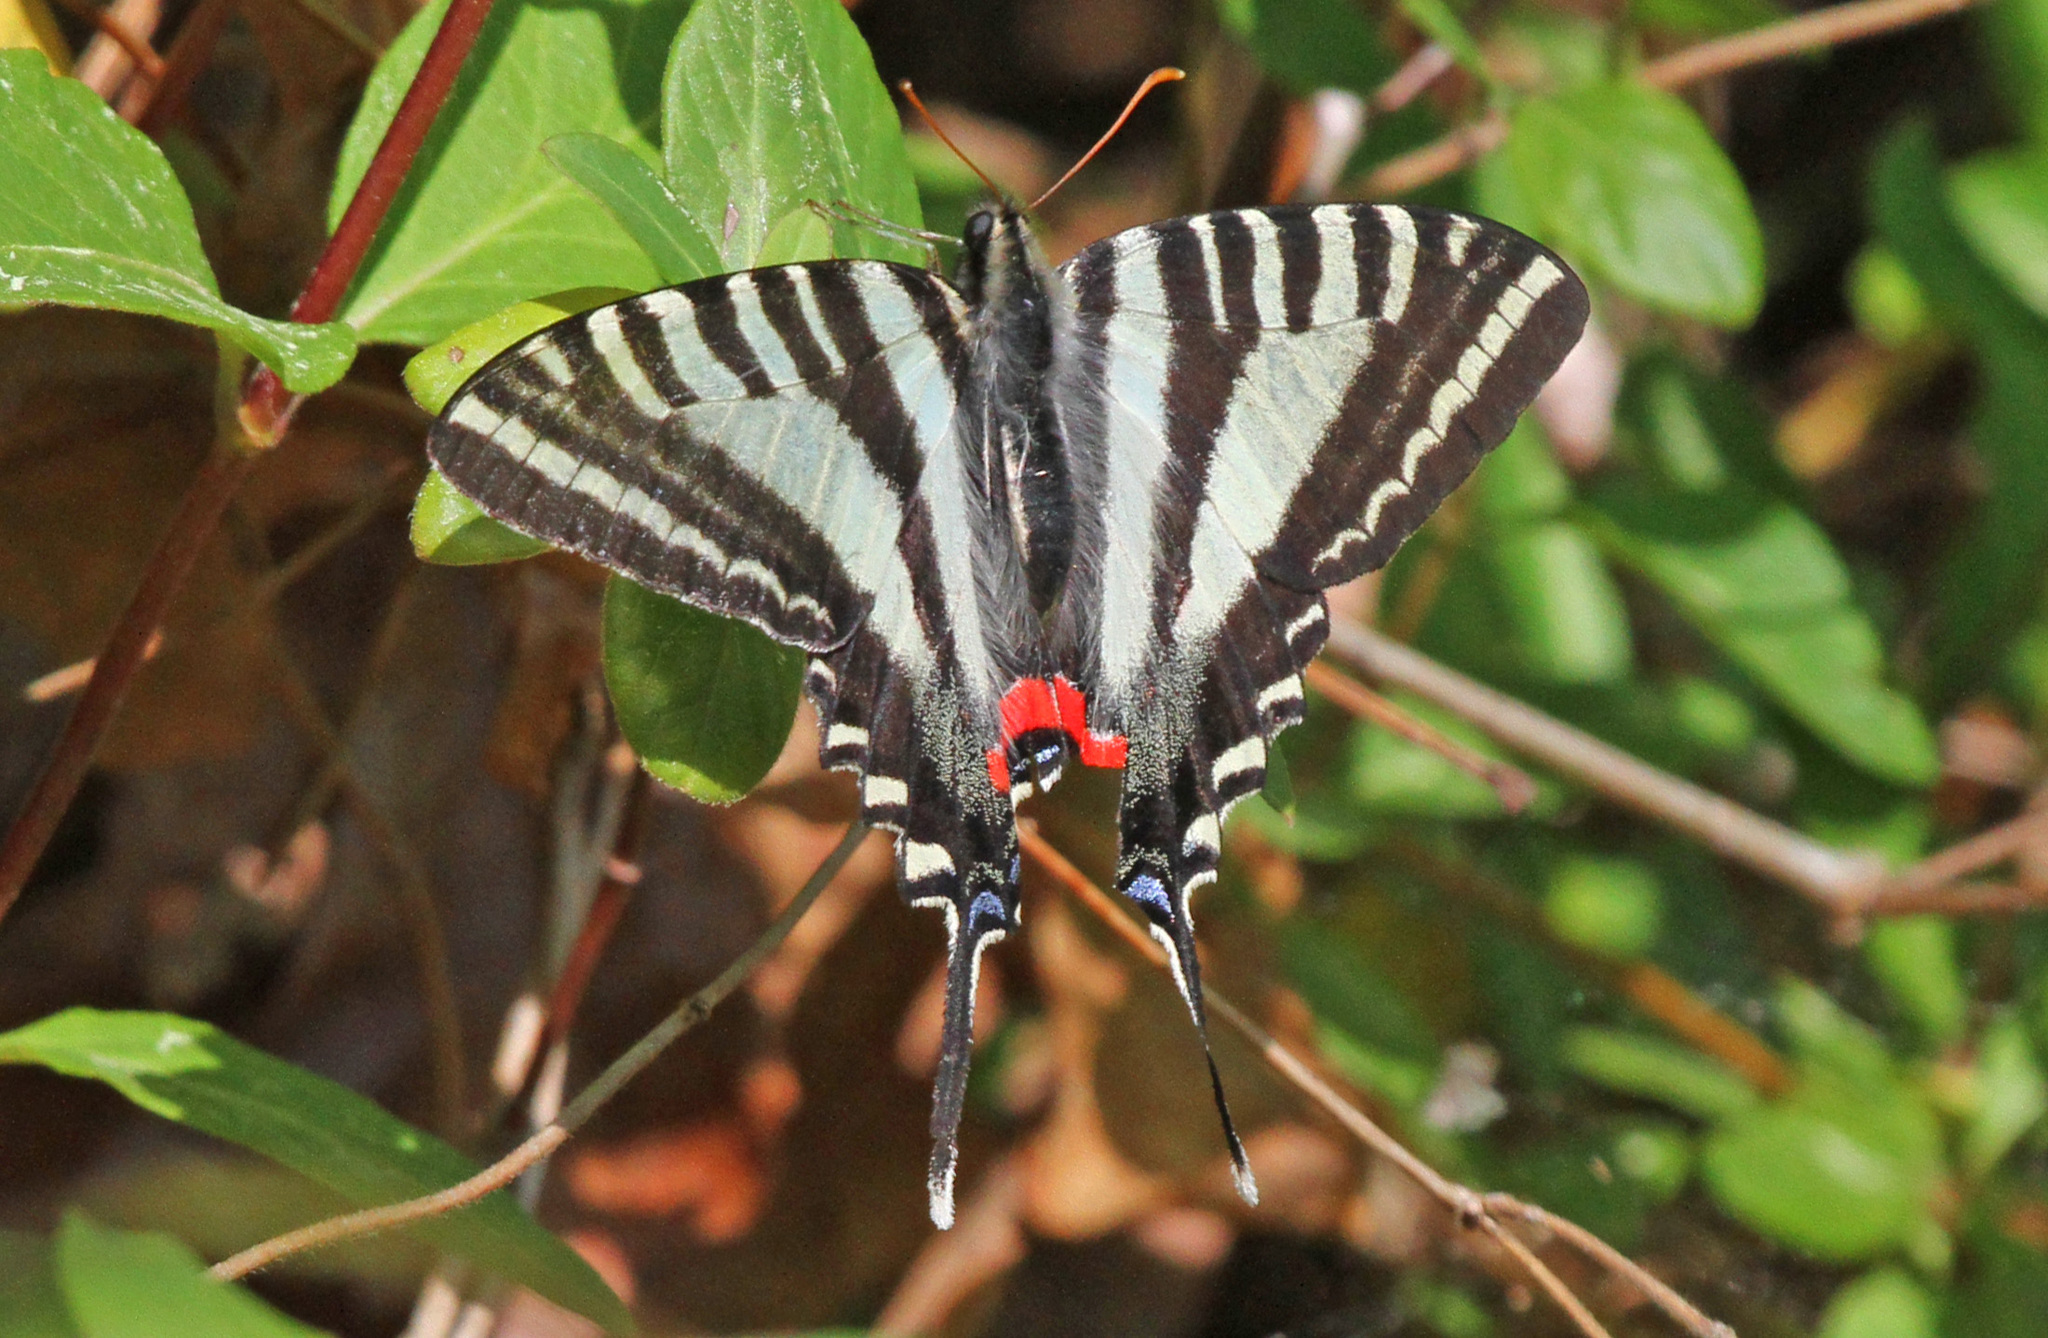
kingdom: Animalia
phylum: Arthropoda
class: Insecta
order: Lepidoptera
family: Papilionidae
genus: Protographium
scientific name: Protographium marcellus
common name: Zebra swallowtail
